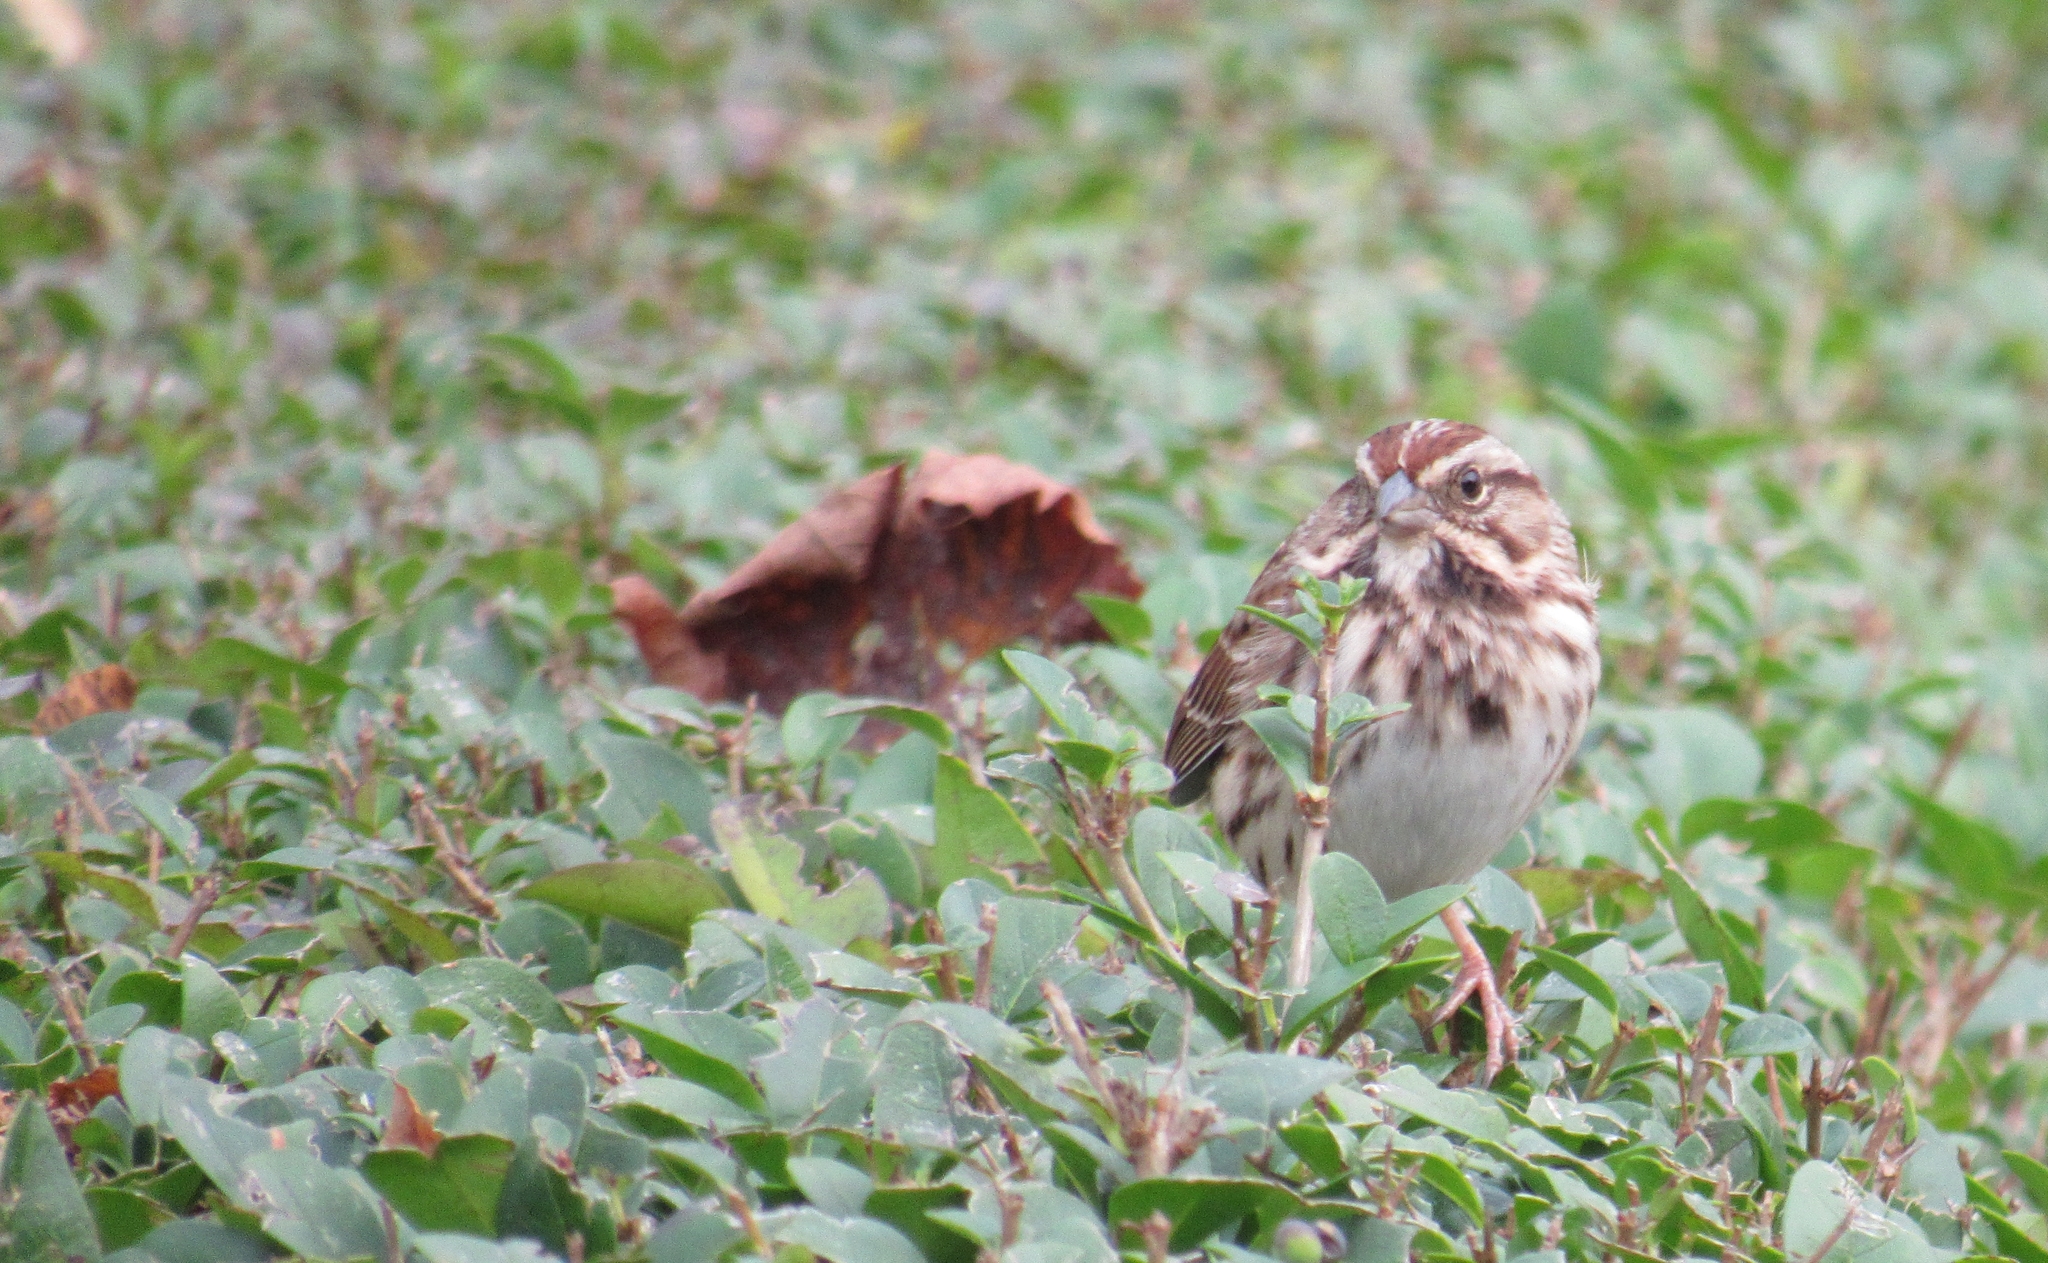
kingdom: Animalia
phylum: Chordata
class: Aves
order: Passeriformes
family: Passerellidae
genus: Melospiza
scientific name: Melospiza melodia
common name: Song sparrow
